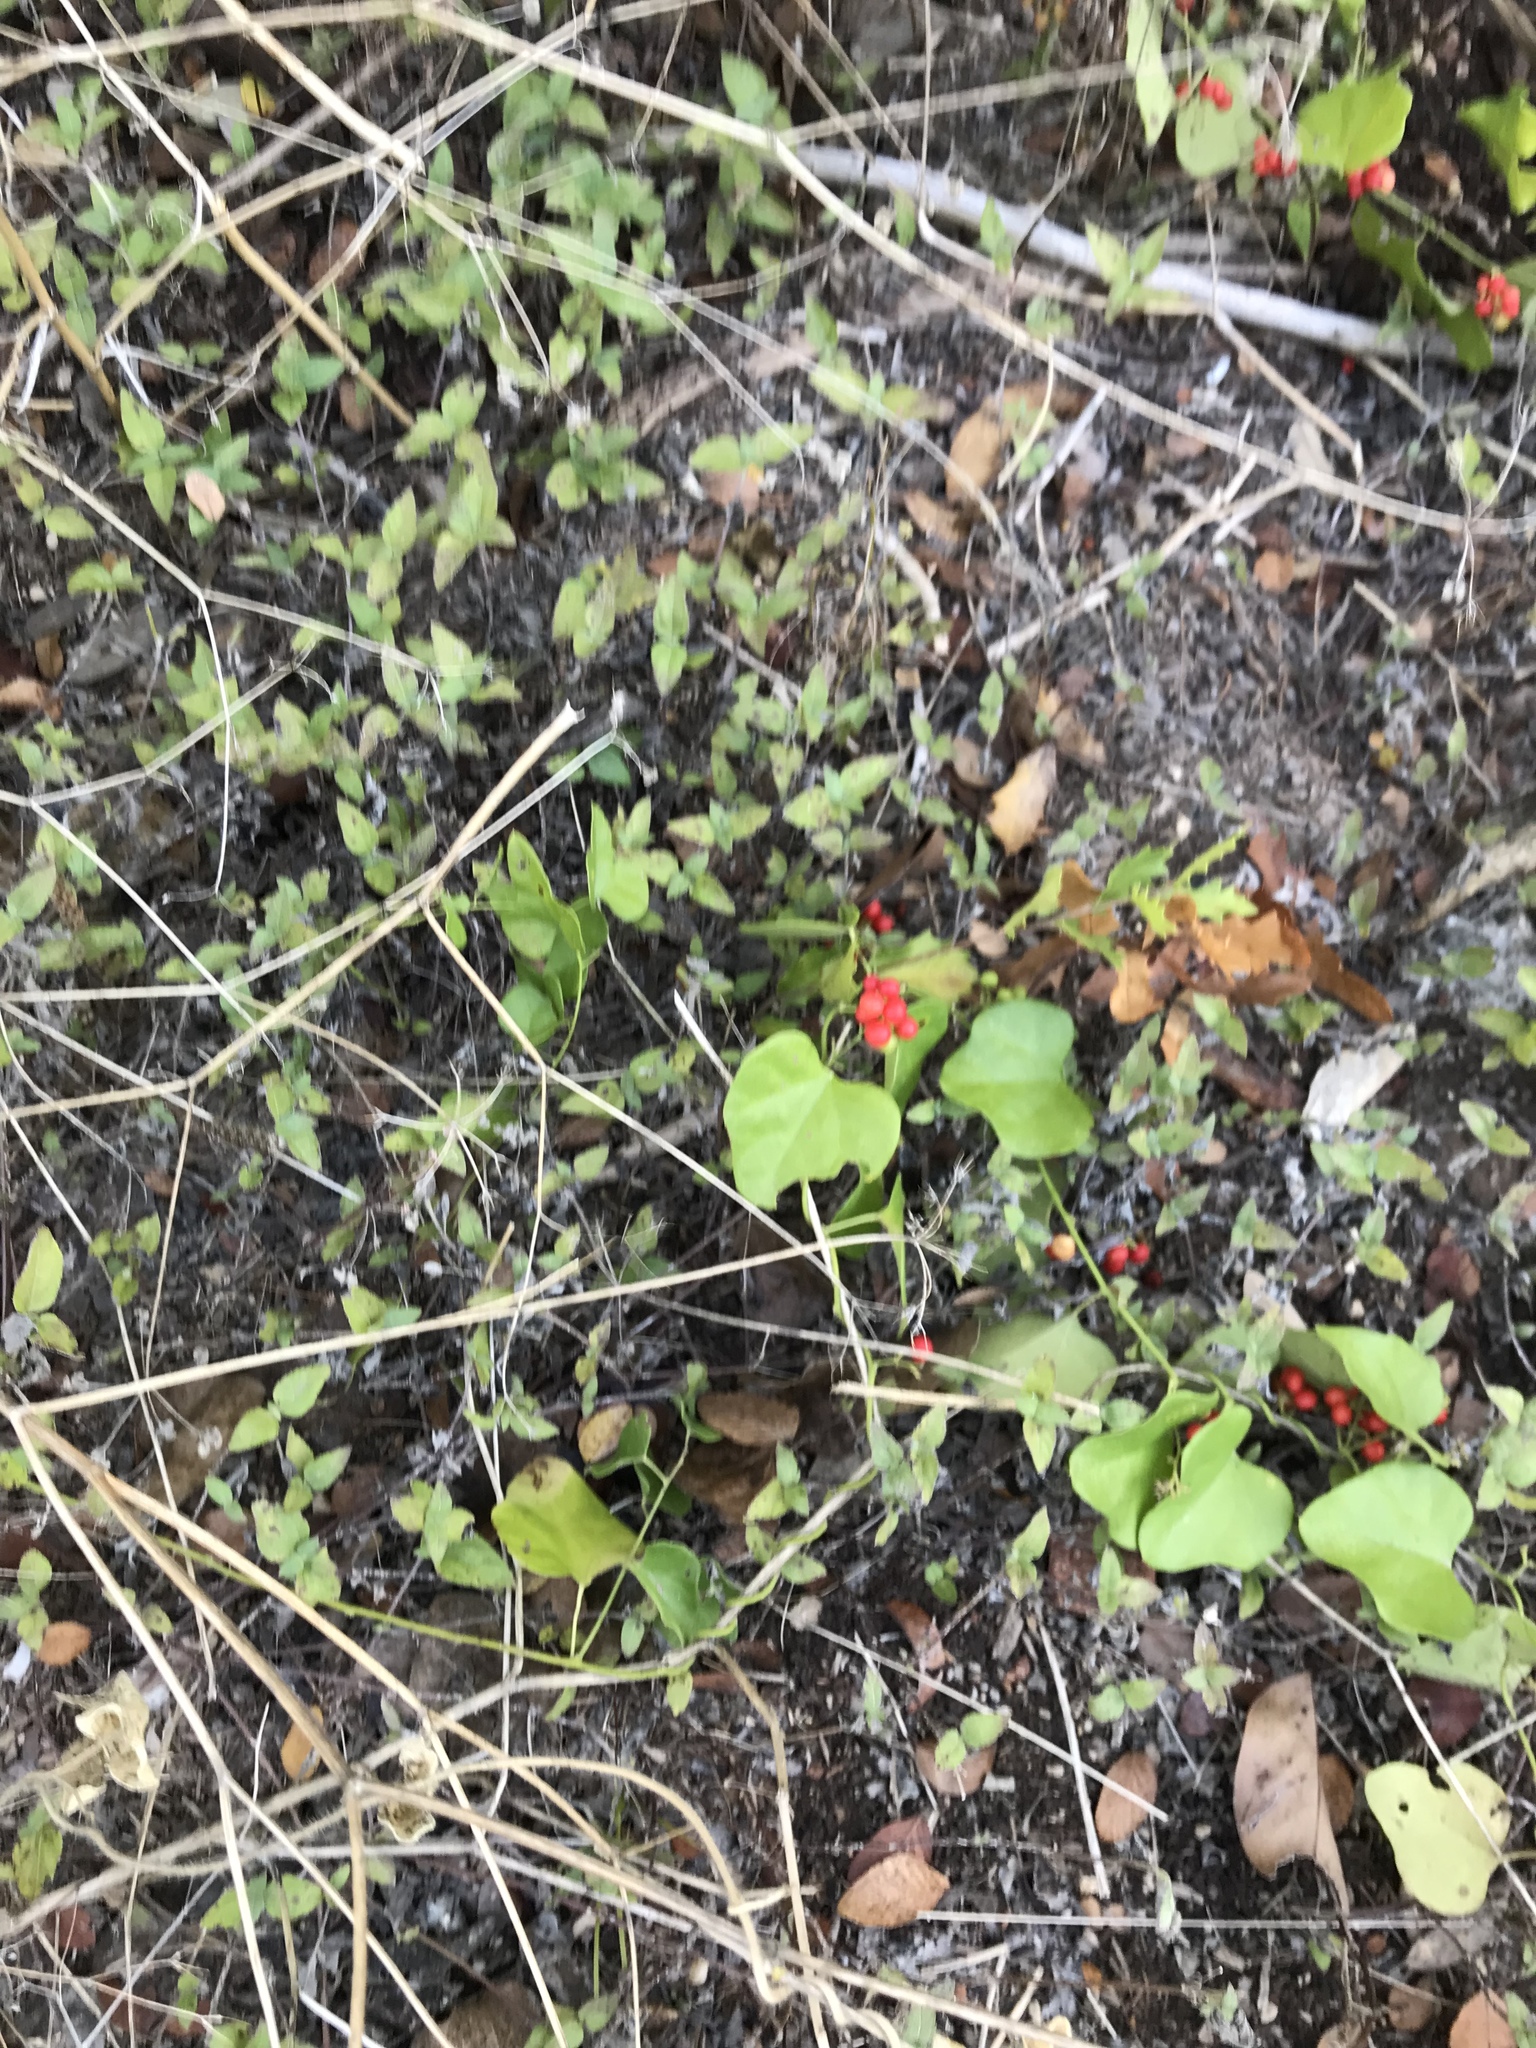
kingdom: Plantae
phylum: Tracheophyta
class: Magnoliopsida
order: Ranunculales
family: Menispermaceae
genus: Cocculus
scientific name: Cocculus carolinus
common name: Carolina moonseed
